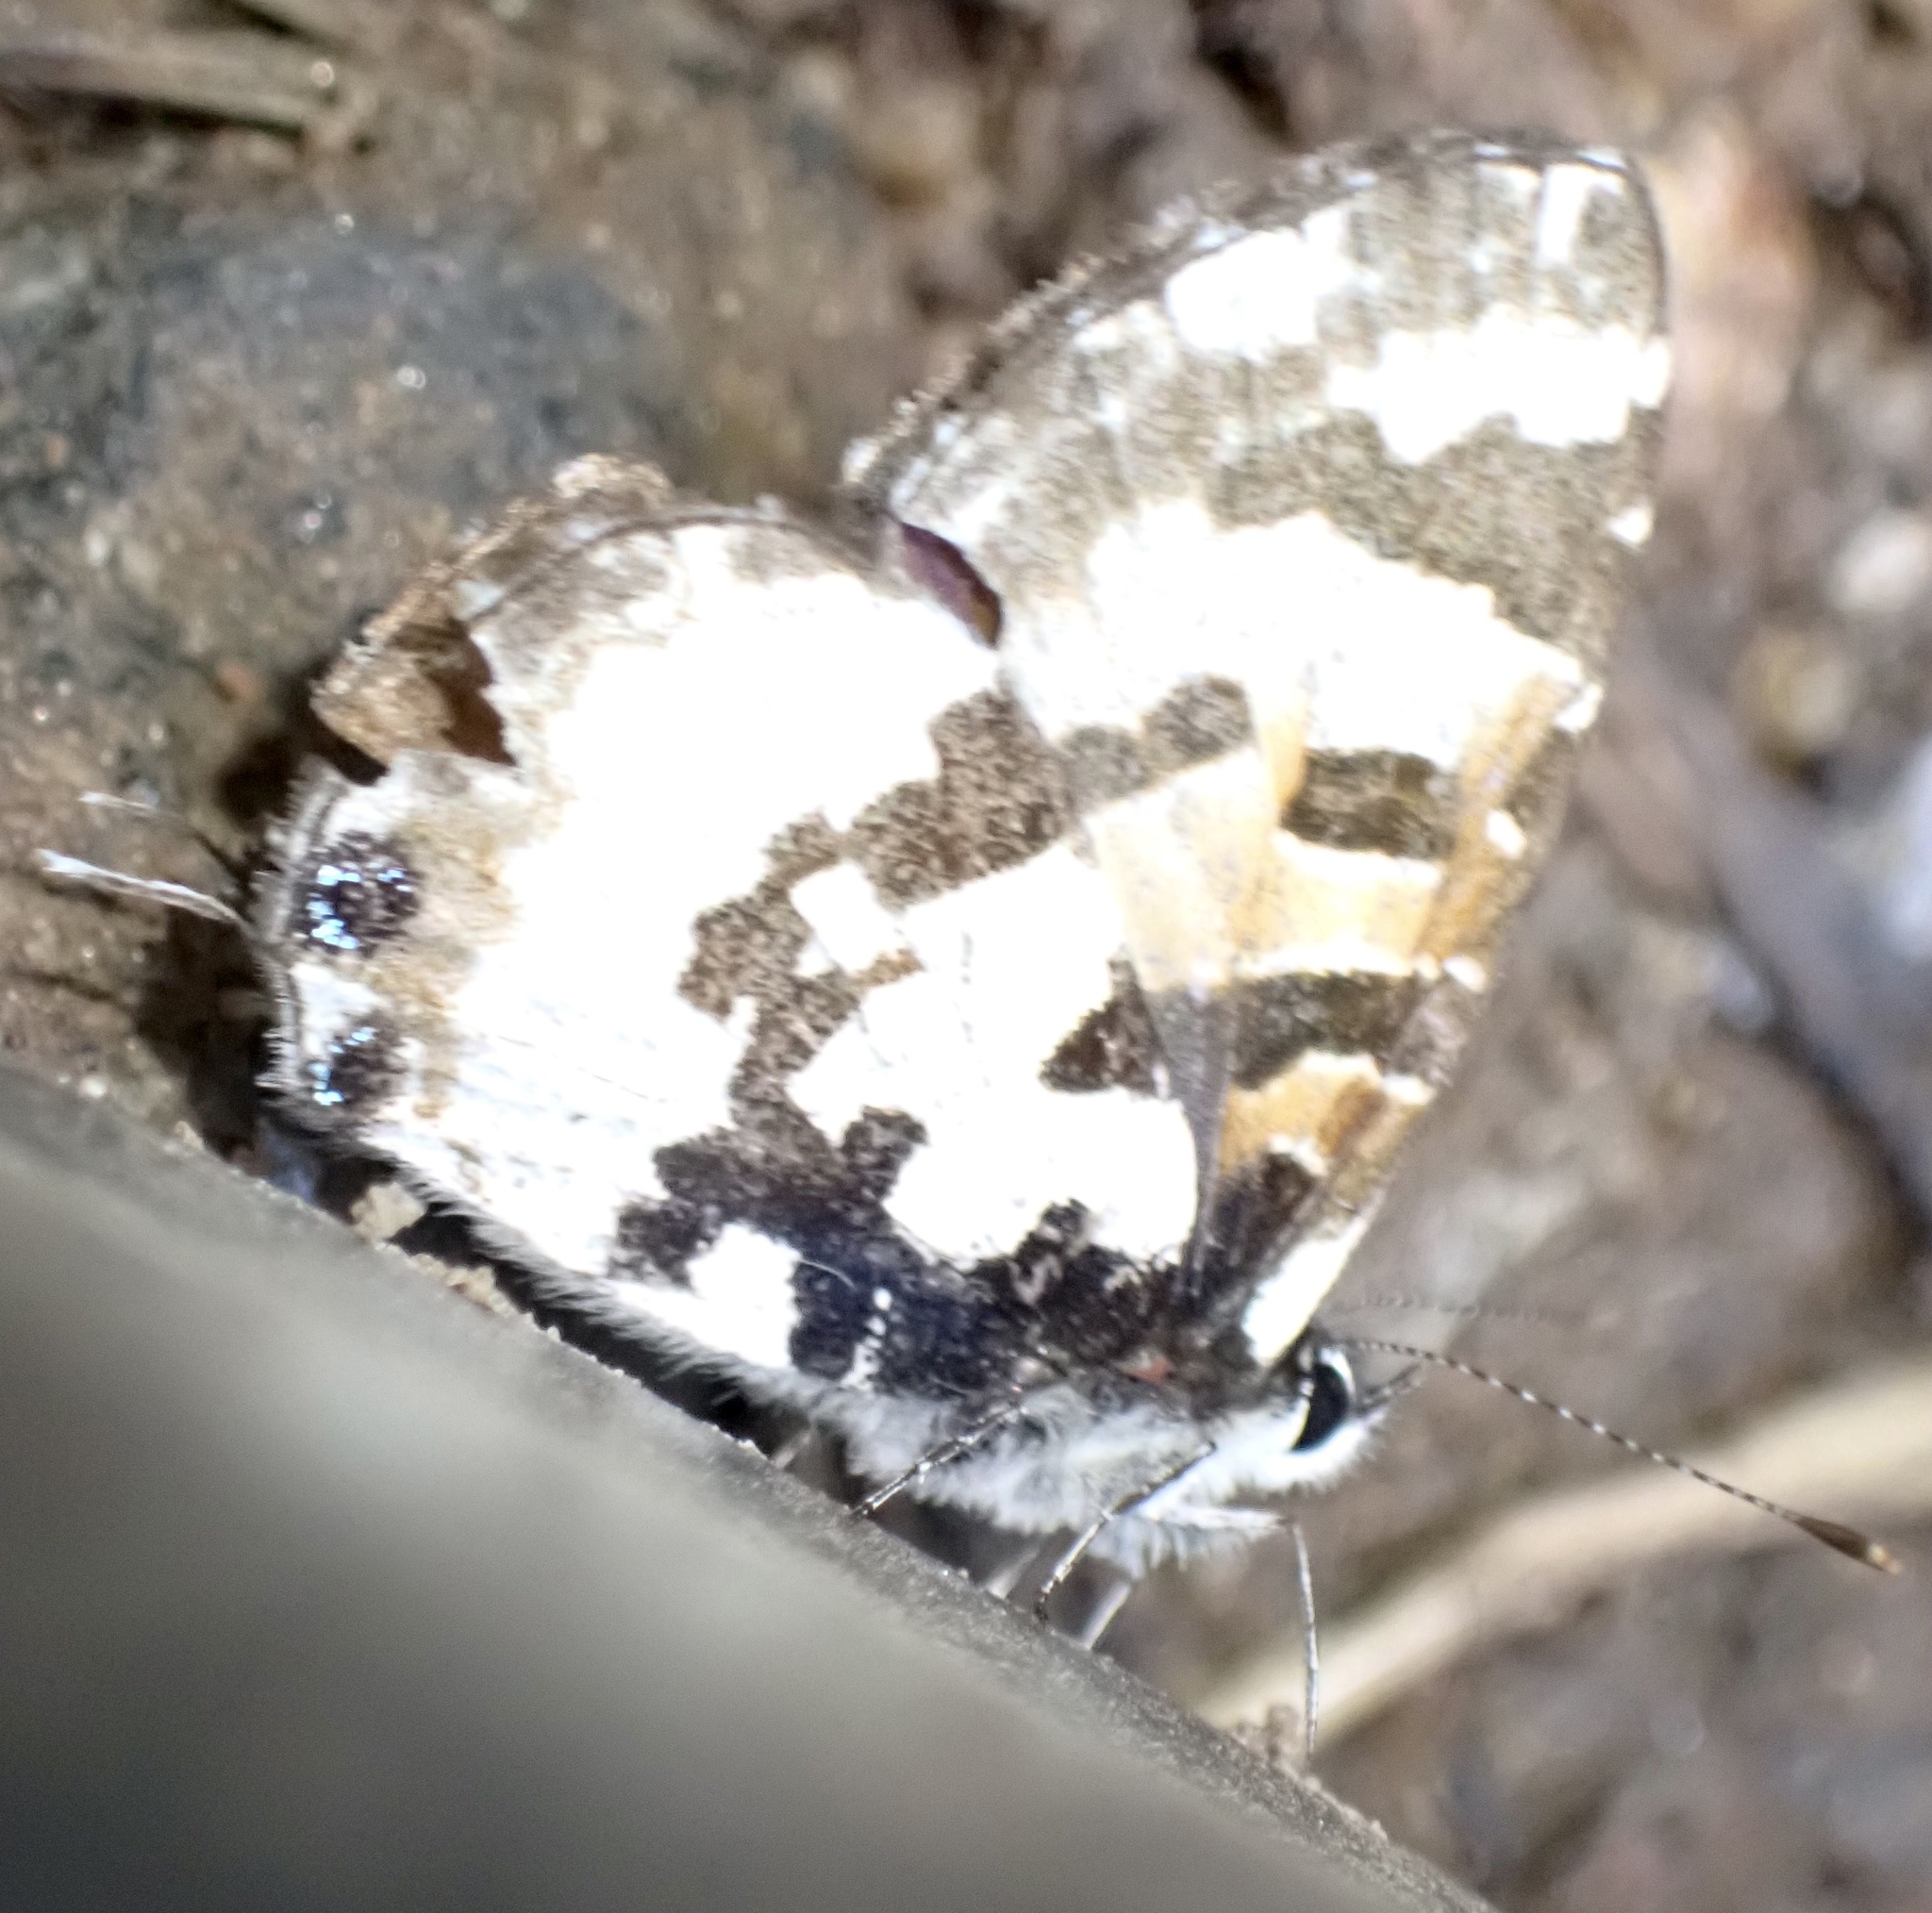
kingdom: Animalia
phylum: Arthropoda
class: Insecta
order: Lepidoptera
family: Lycaenidae
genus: Uranothauma
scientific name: Uranothauma falkensteini
